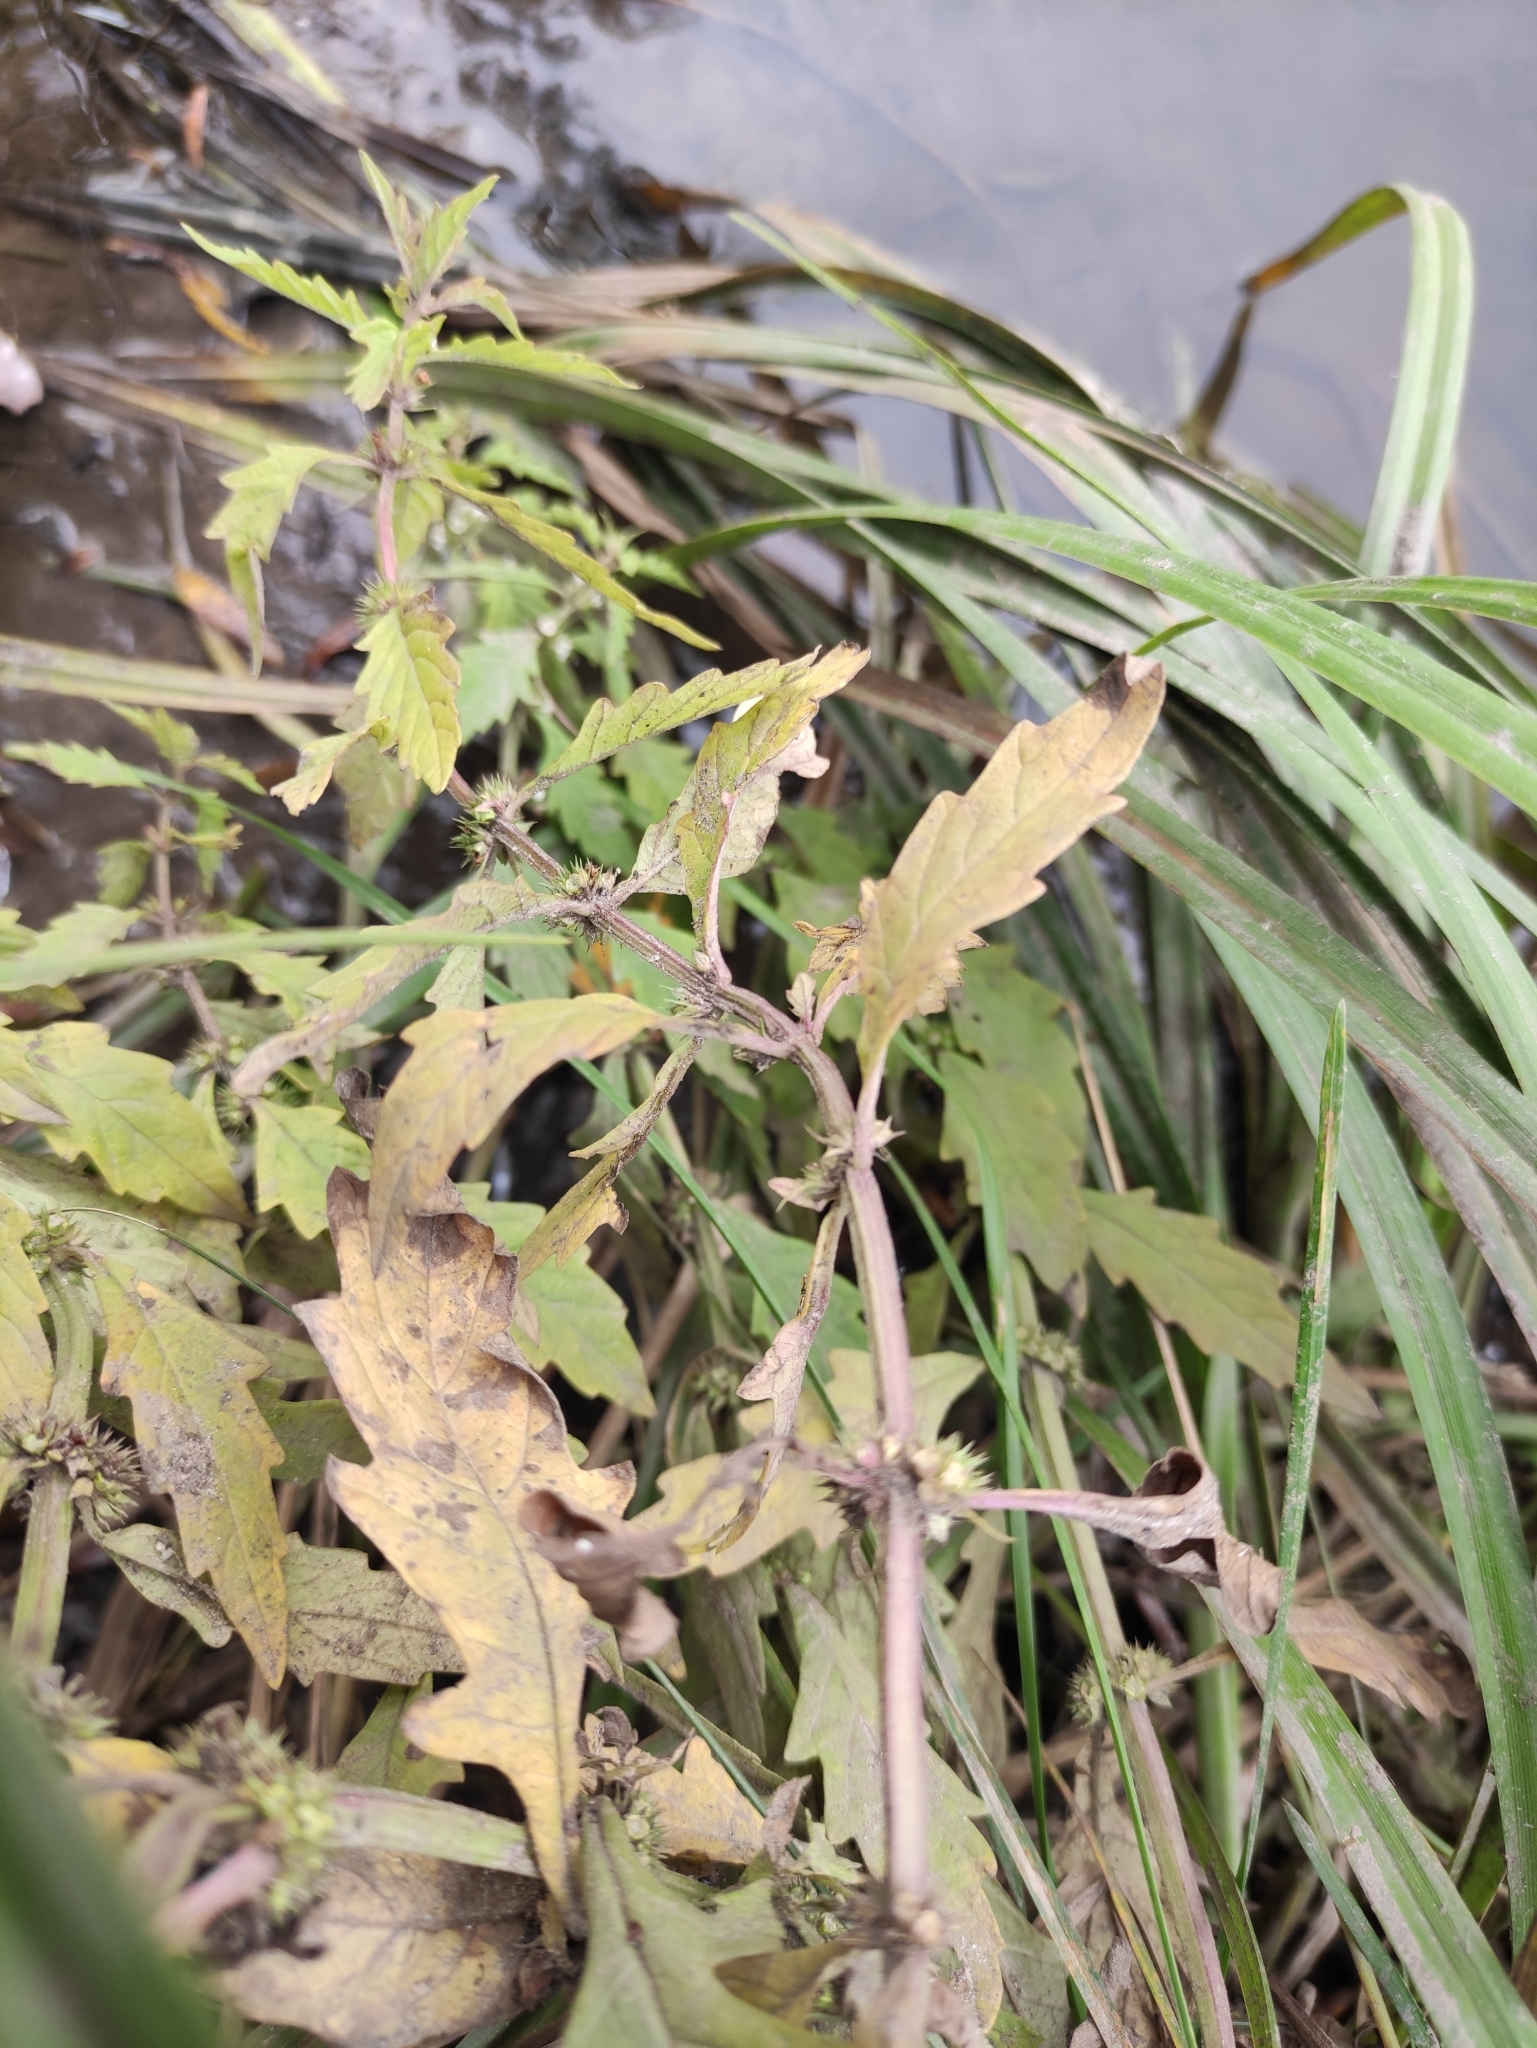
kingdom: Plantae
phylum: Tracheophyta
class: Magnoliopsida
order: Lamiales
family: Lamiaceae
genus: Lycopus
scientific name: Lycopus europaeus
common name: European bugleweed
